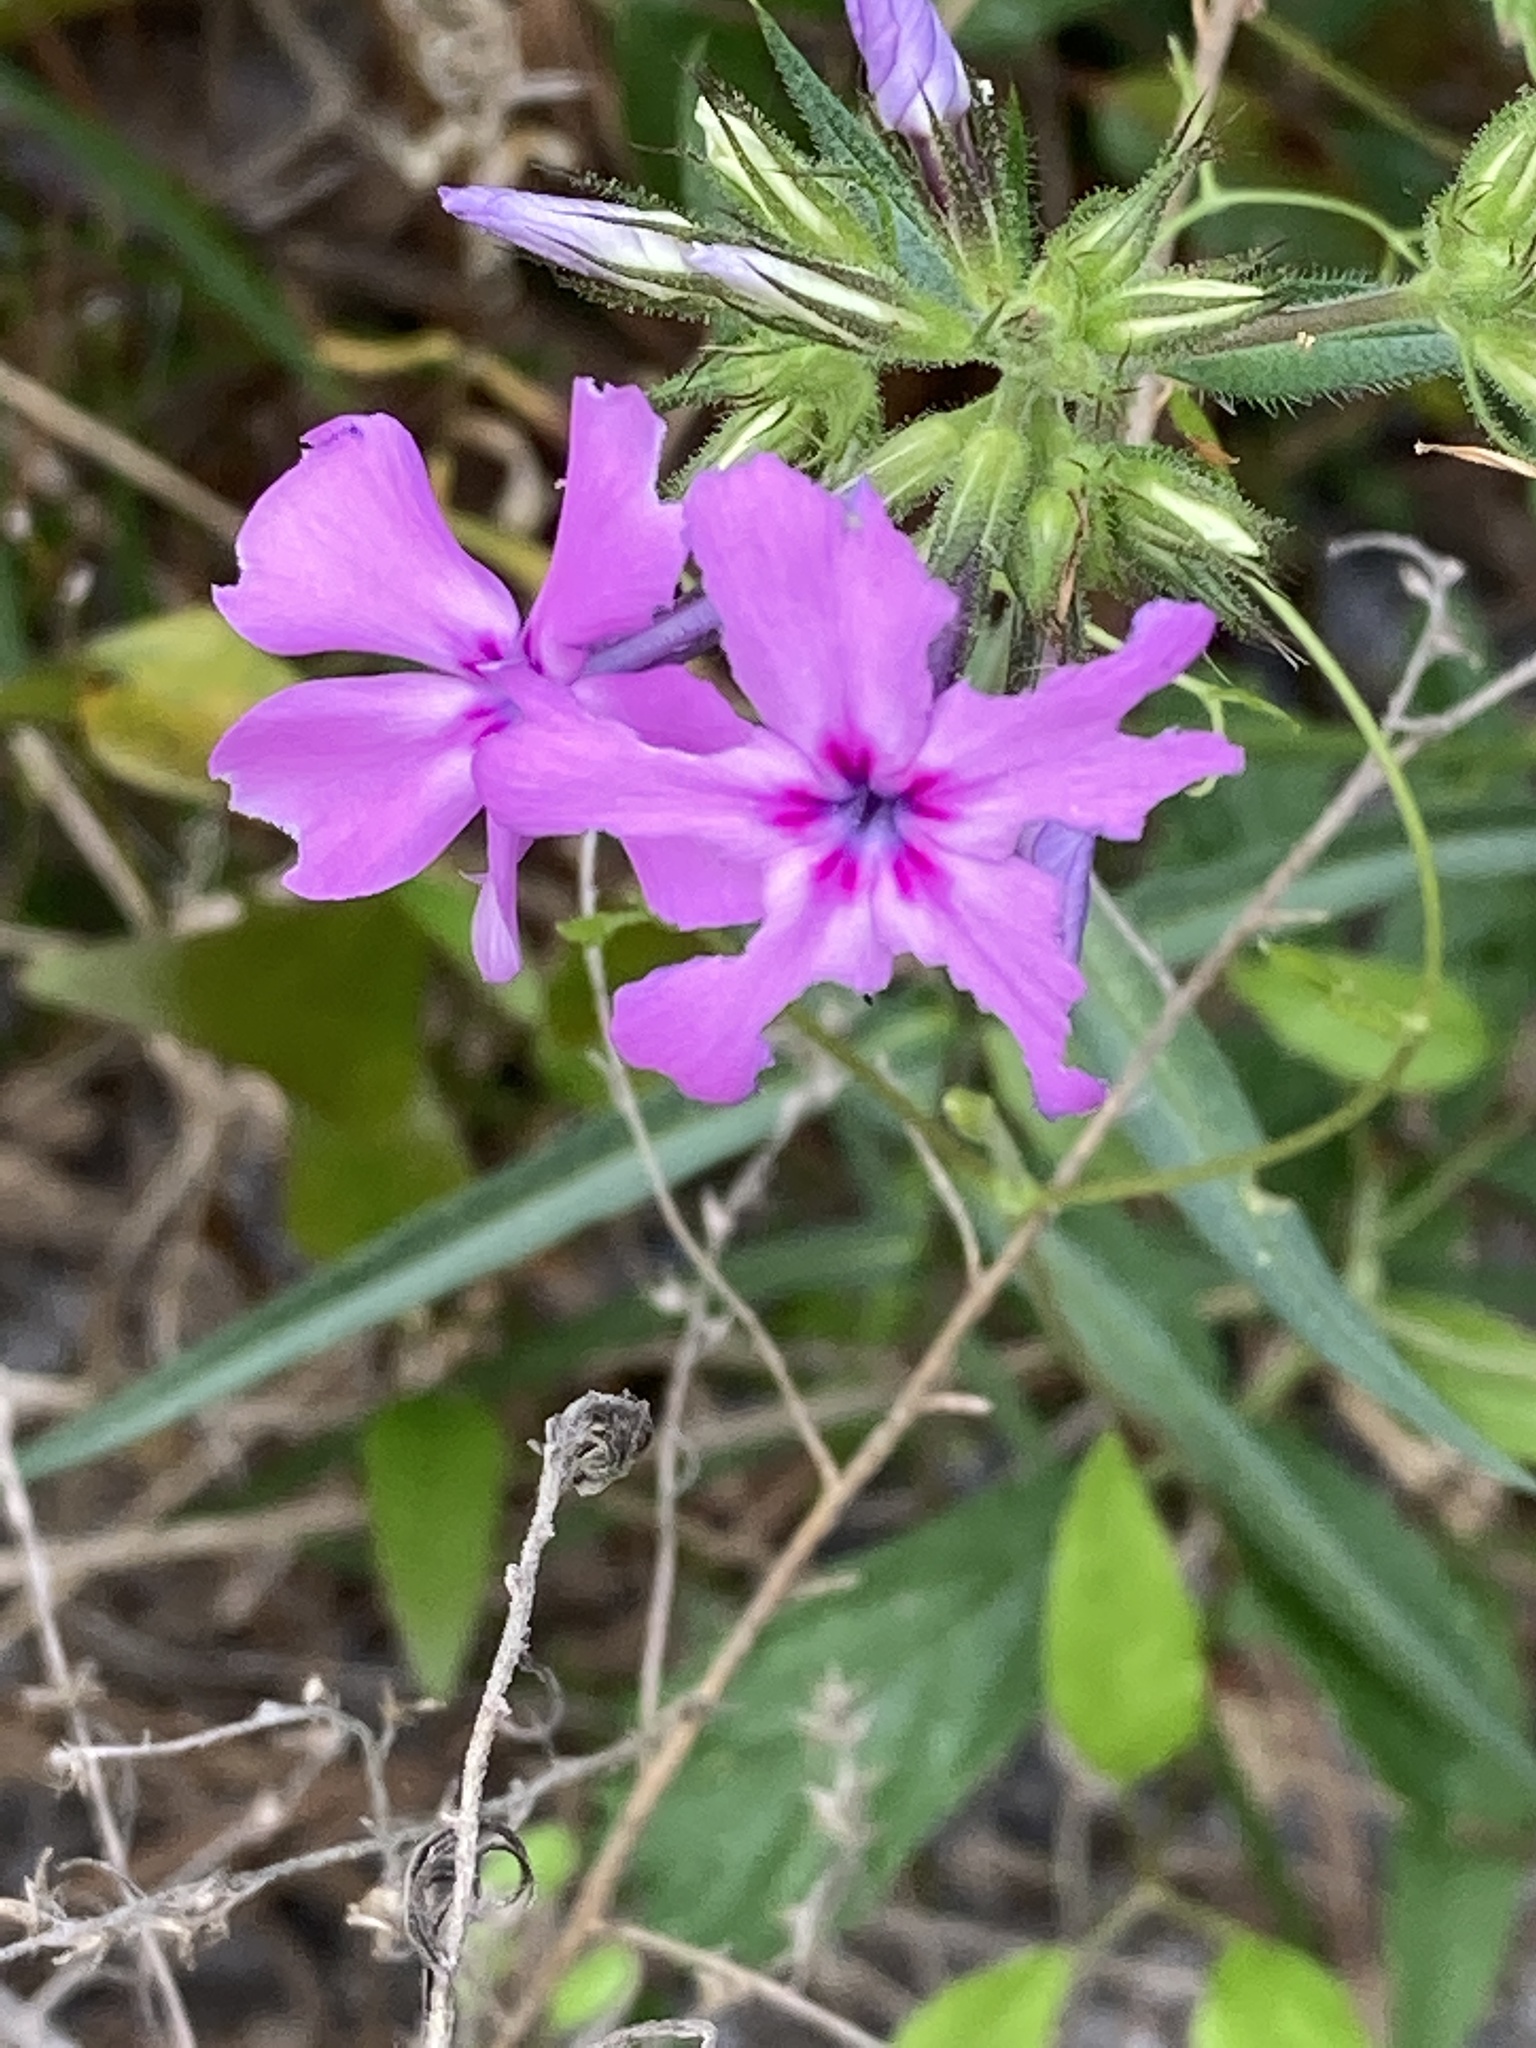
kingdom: Plantae
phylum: Tracheophyta
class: Magnoliopsida
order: Ericales
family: Polemoniaceae
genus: Phlox
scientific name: Phlox pilosa
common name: Prairie phlox
